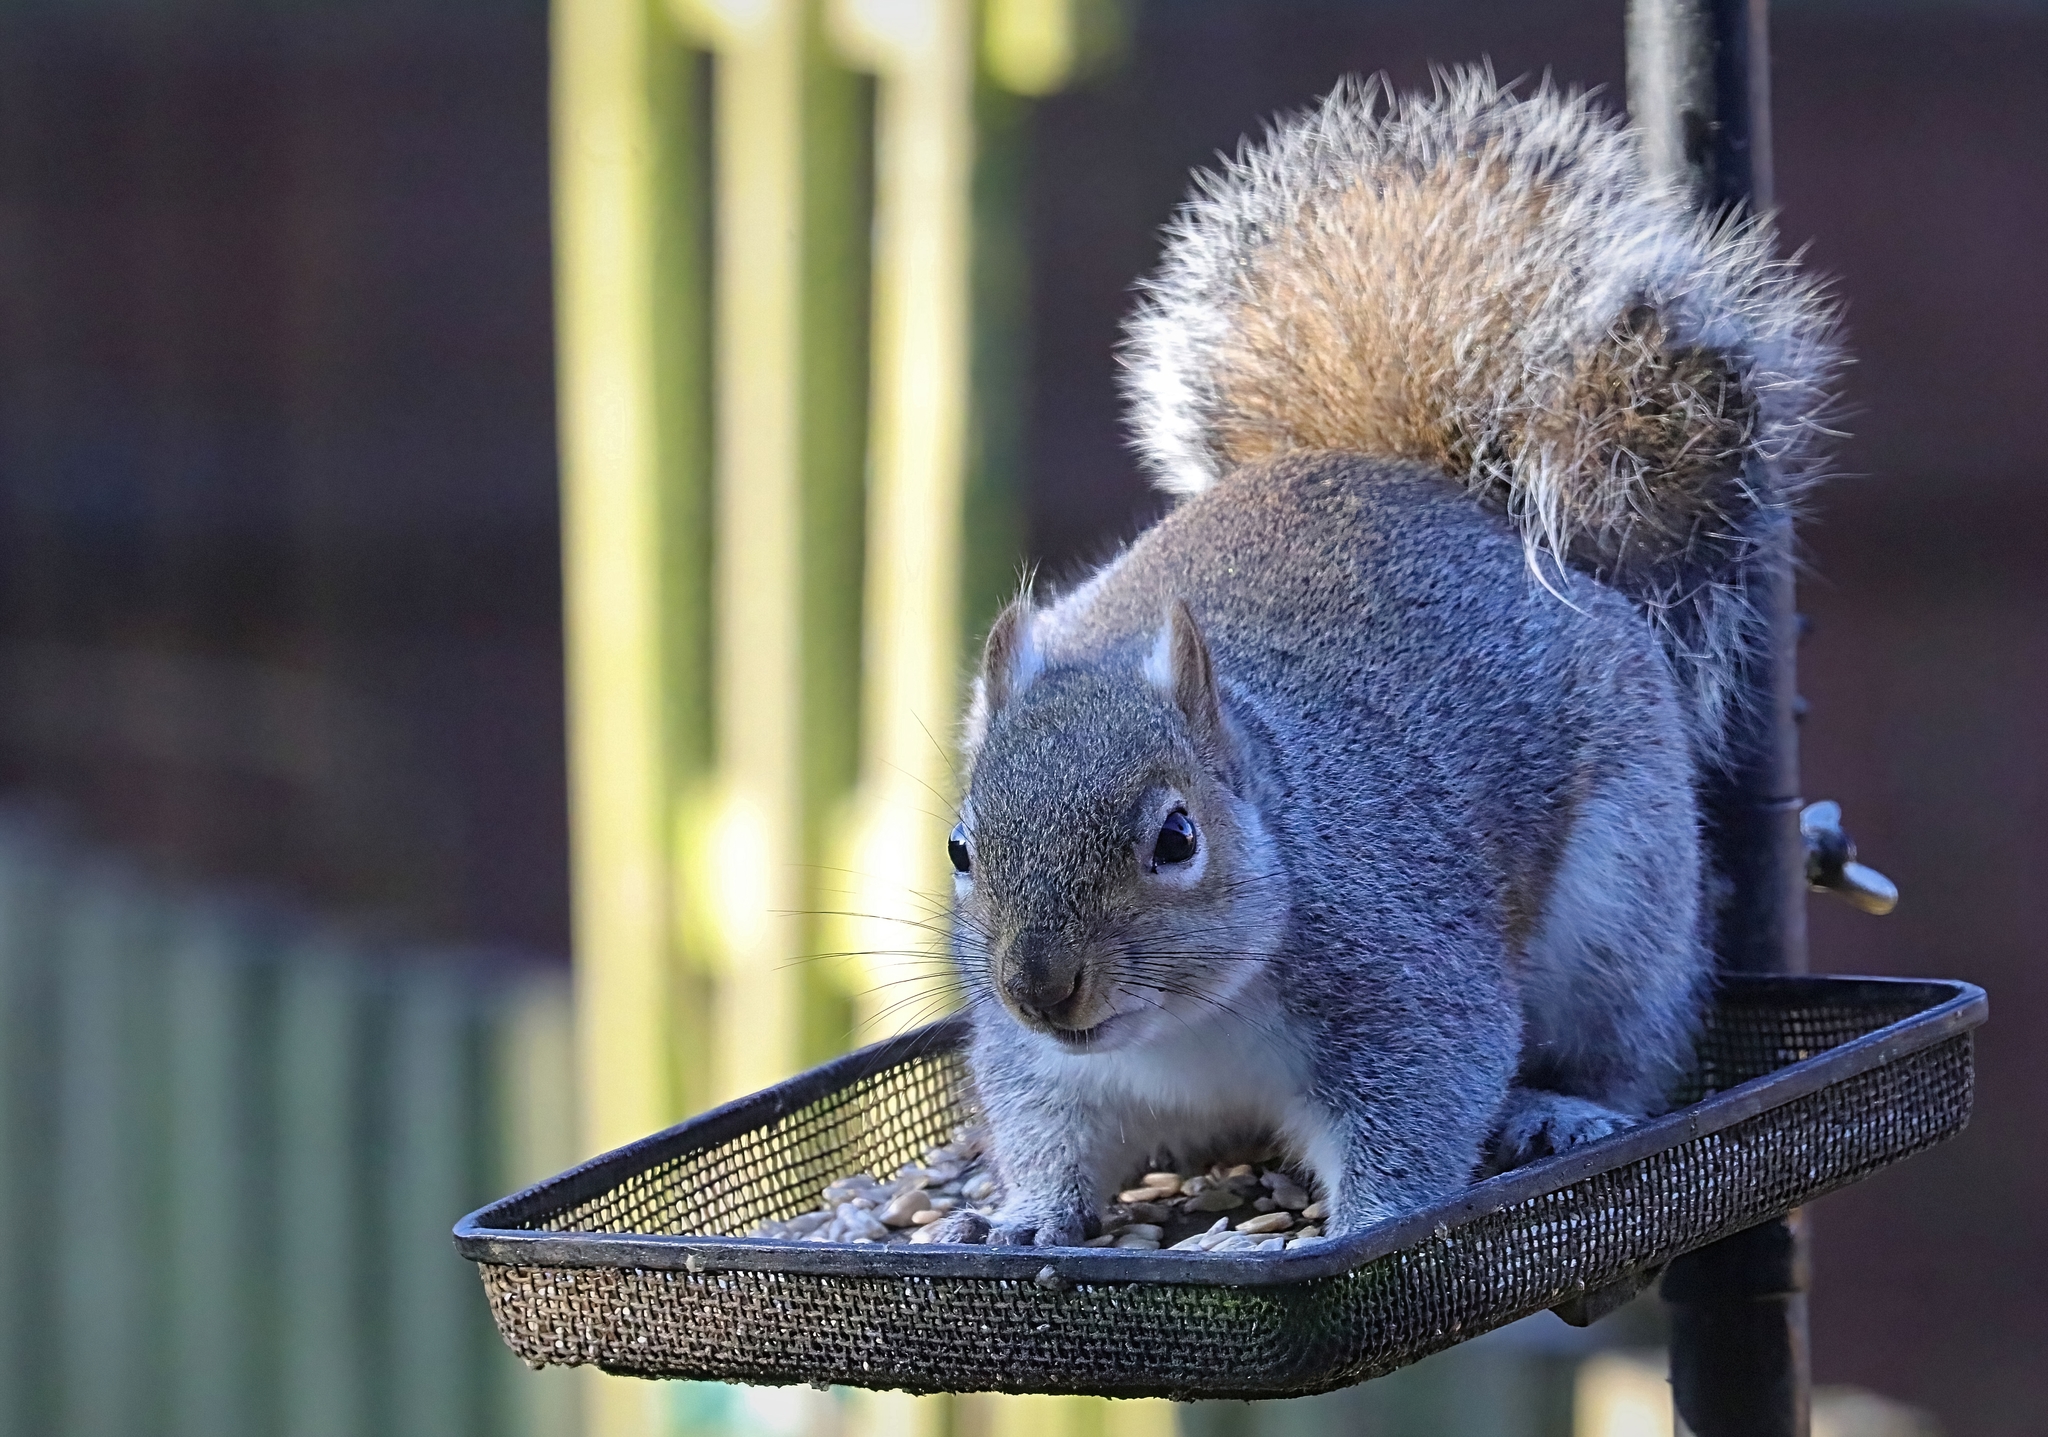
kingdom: Animalia
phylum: Chordata
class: Mammalia
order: Rodentia
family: Sciuridae
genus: Sciurus
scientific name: Sciurus carolinensis
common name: Eastern gray squirrel
